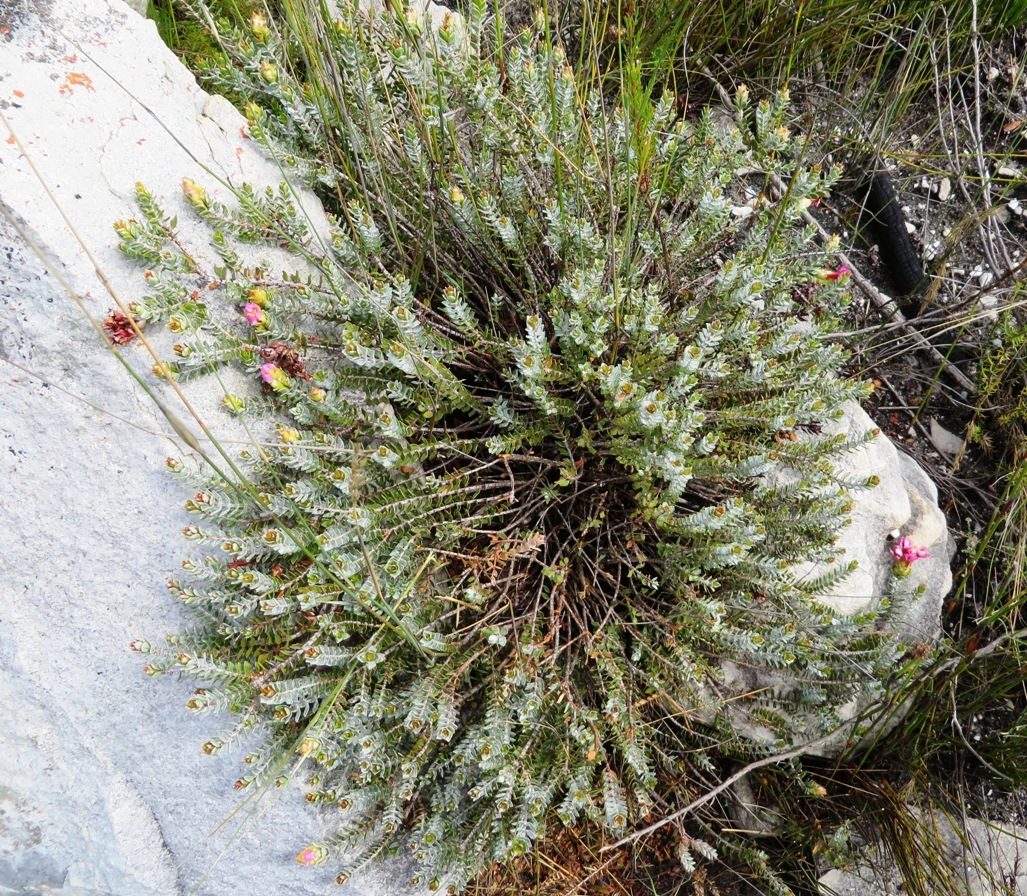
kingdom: Plantae
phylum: Tracheophyta
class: Magnoliopsida
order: Myrtales
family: Penaeaceae
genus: Saltera
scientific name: Saltera sarcocolla
